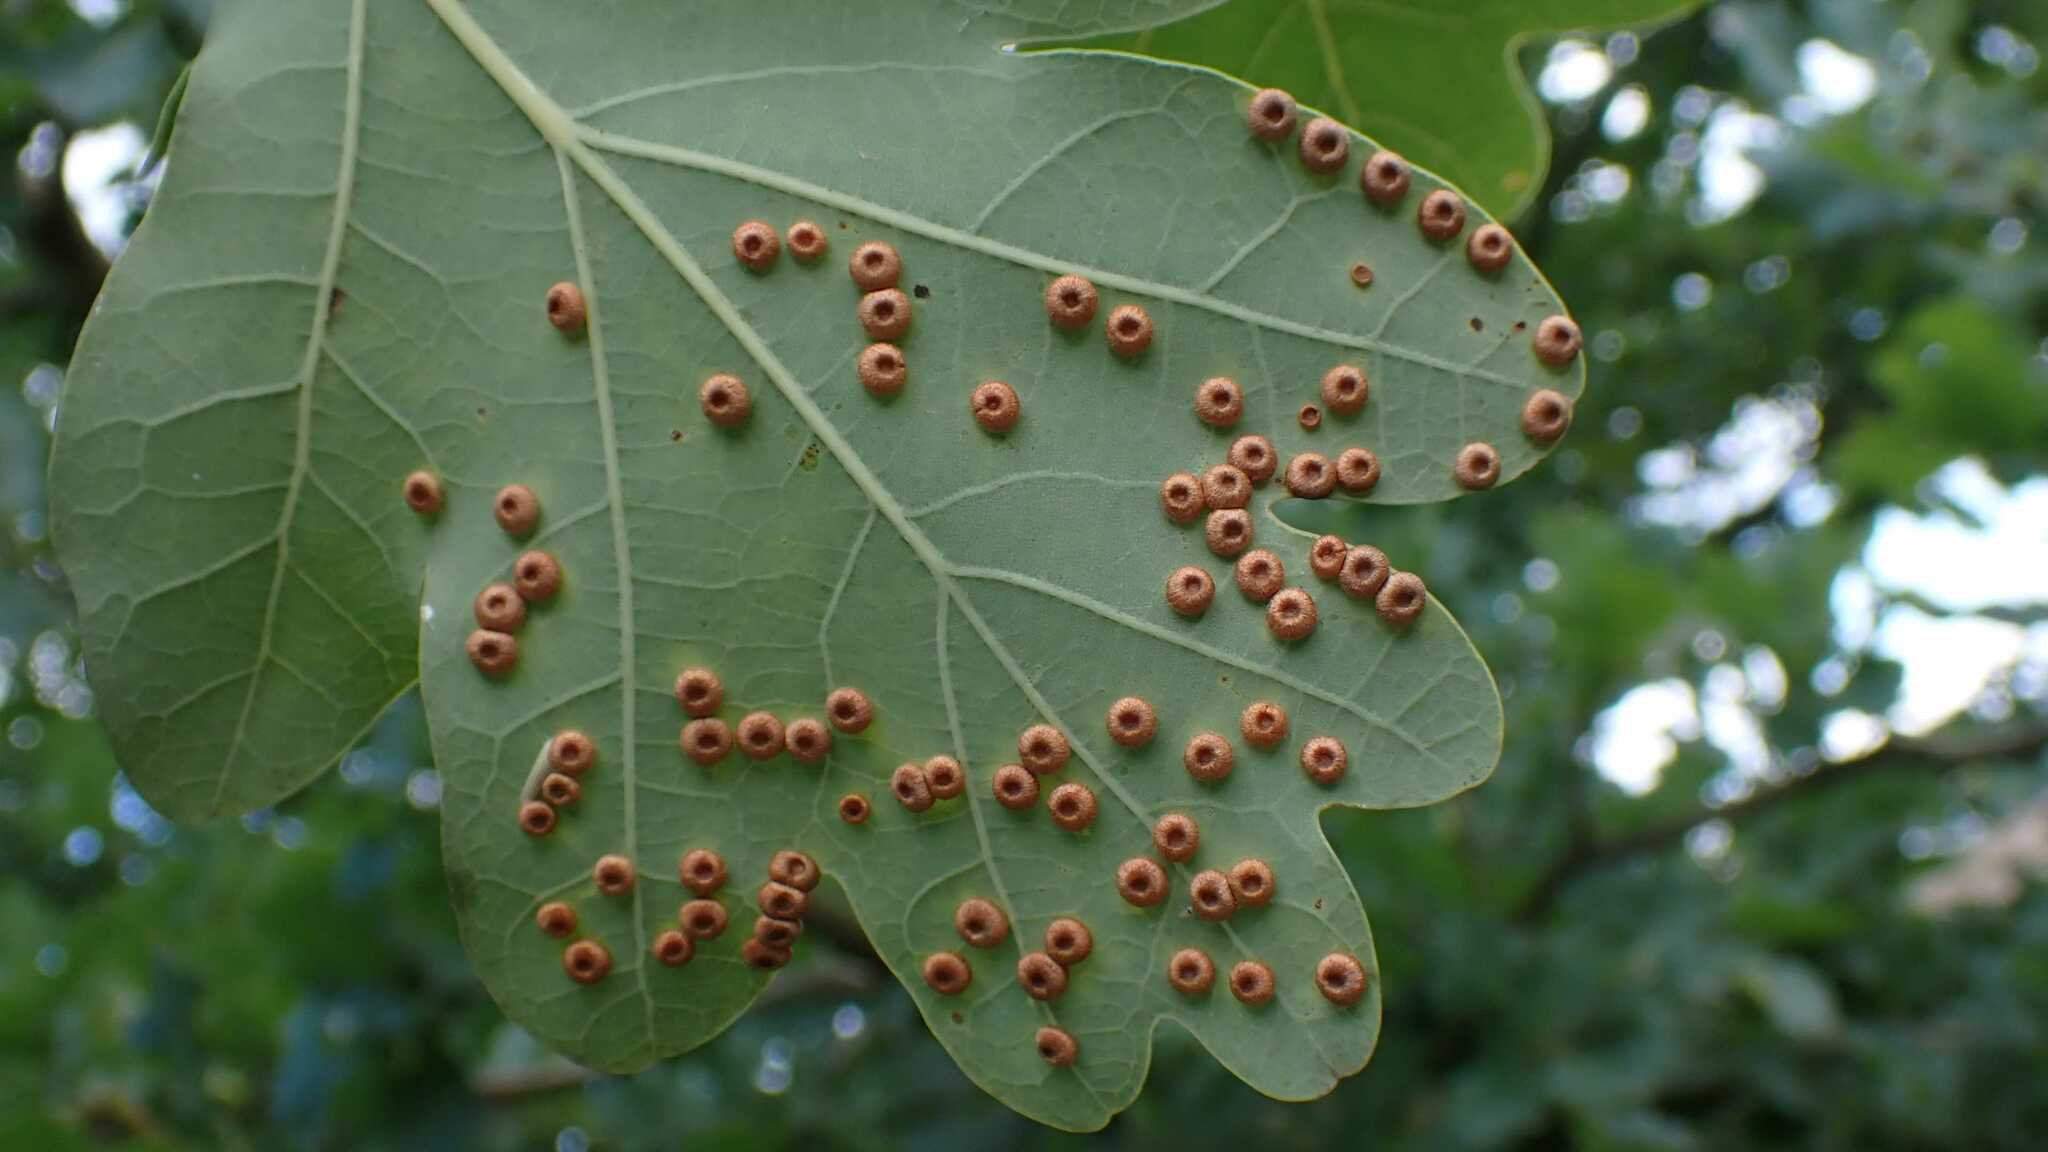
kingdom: Animalia
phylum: Arthropoda
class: Insecta
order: Hymenoptera
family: Cynipidae
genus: Neuroterus
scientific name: Neuroterus numismalis
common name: Silk-button spangle gall
